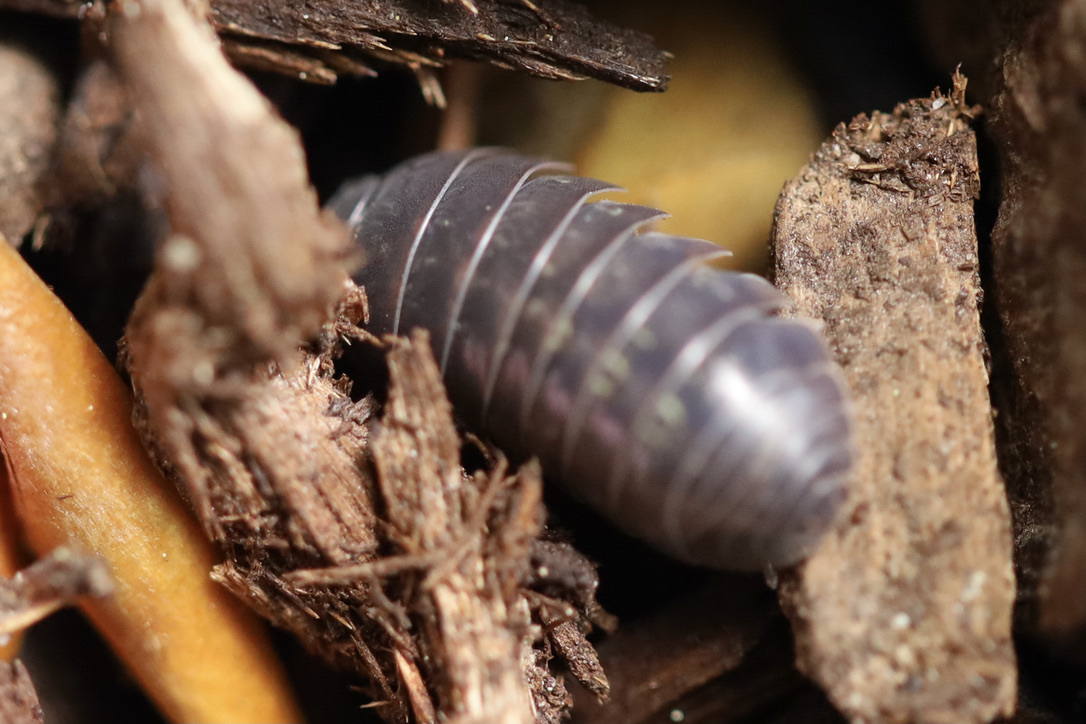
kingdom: Animalia
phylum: Arthropoda
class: Malacostraca
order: Isopoda
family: Armadillidiidae
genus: Armadillidium
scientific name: Armadillidium vulgare
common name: Common pill woodlouse
